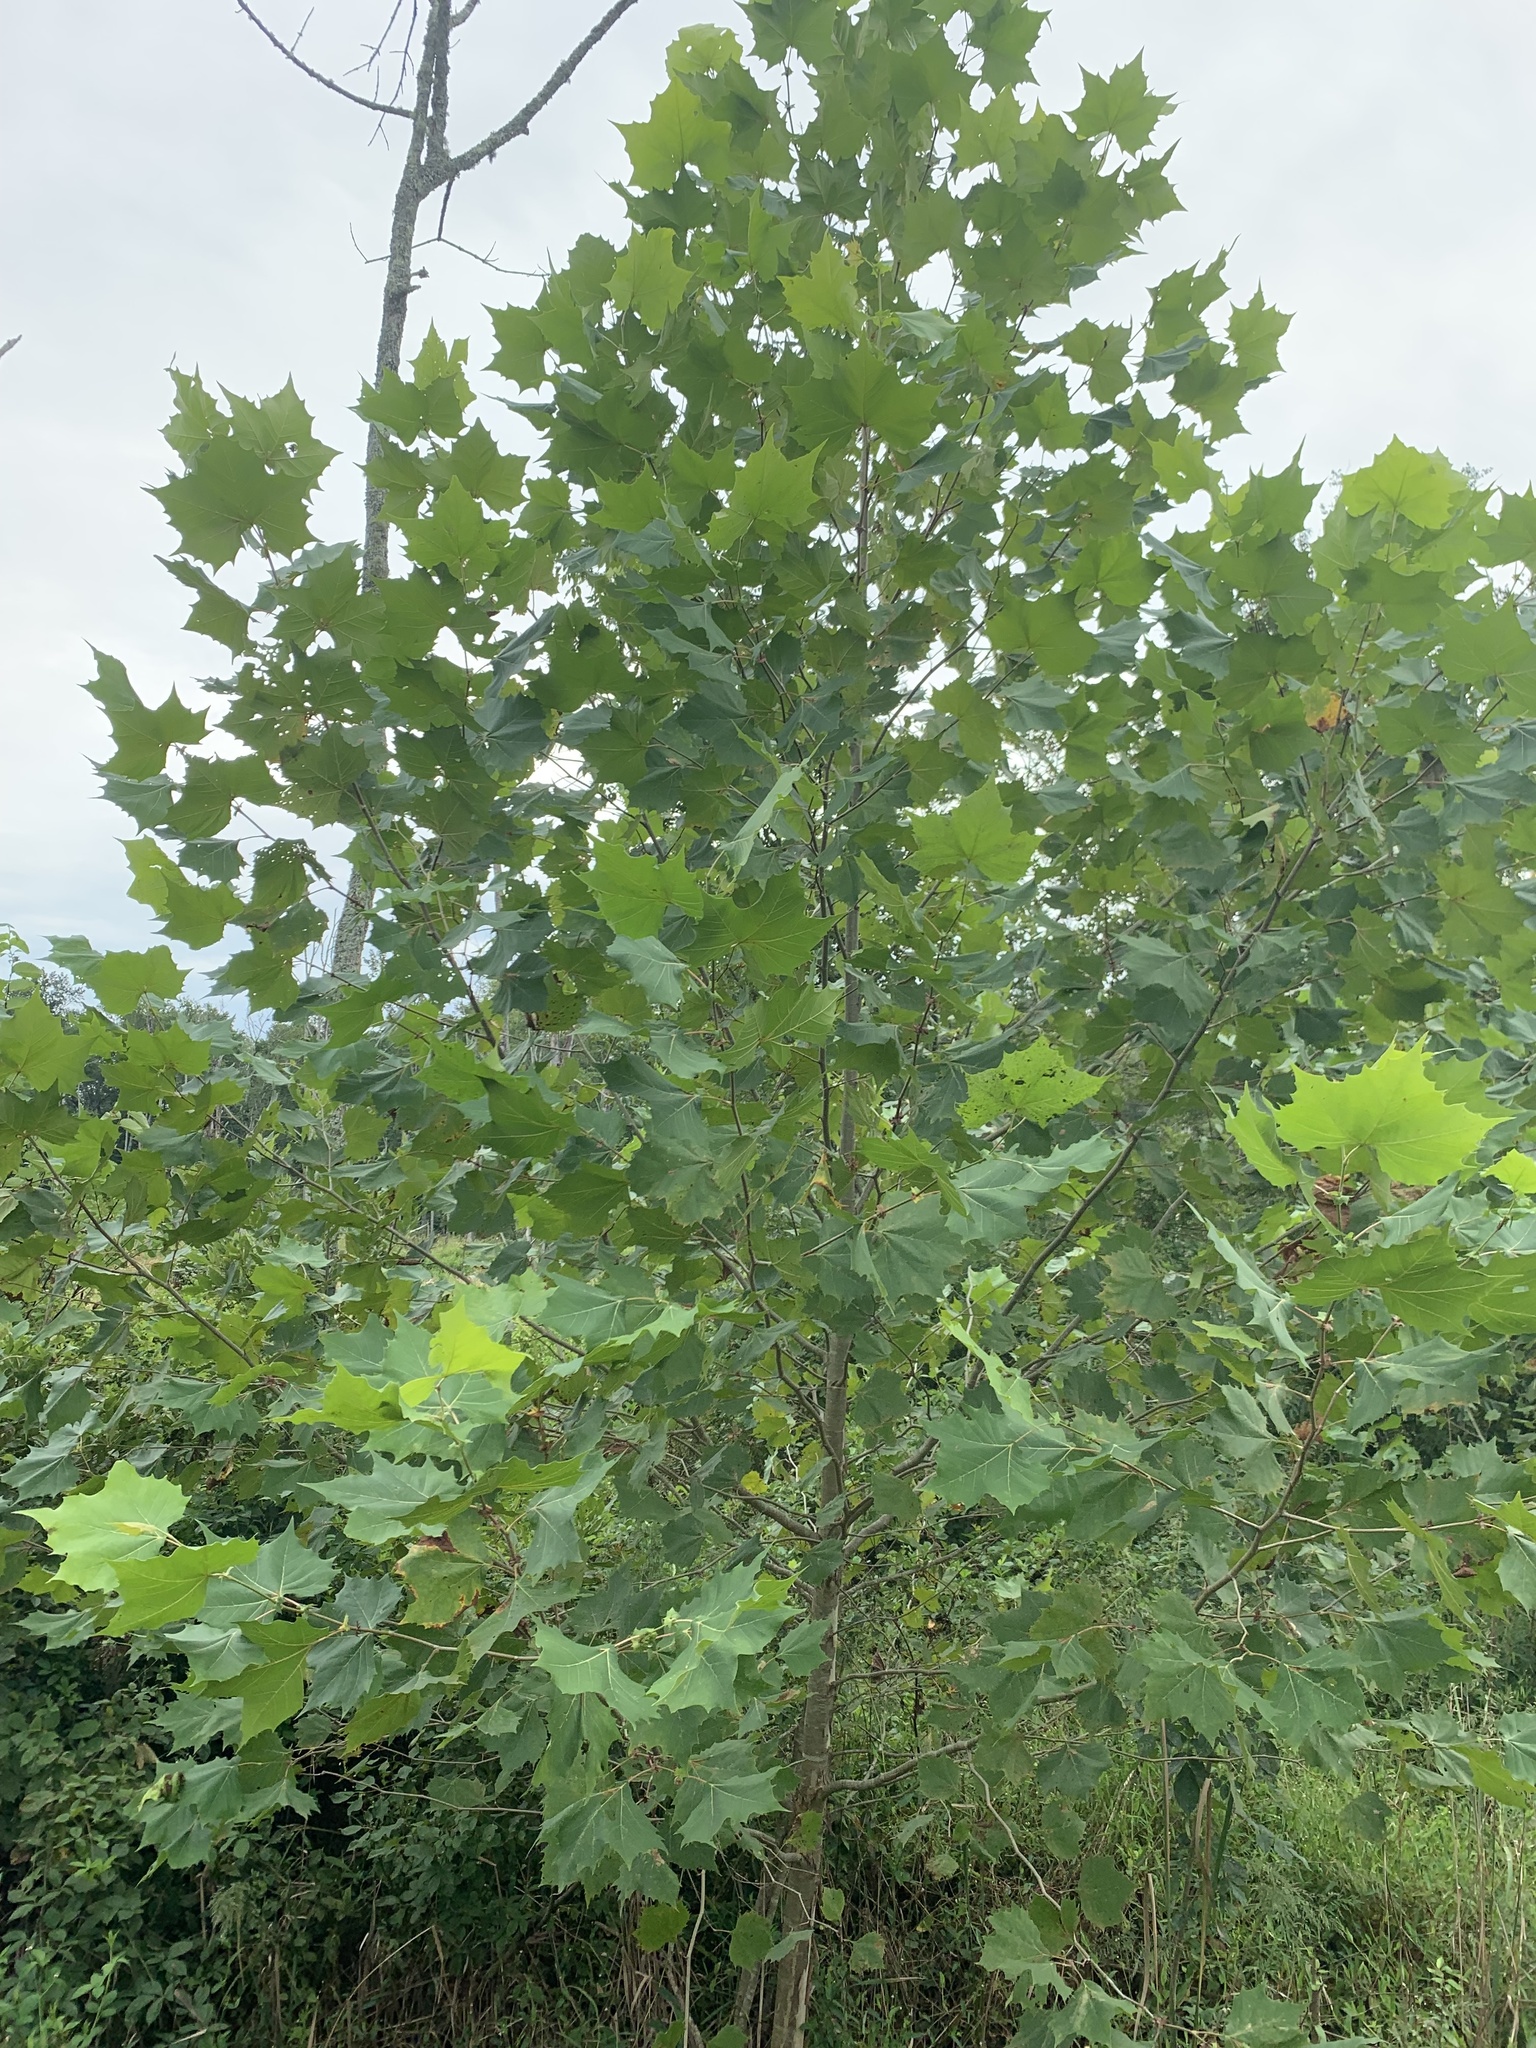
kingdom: Plantae
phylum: Tracheophyta
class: Magnoliopsida
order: Proteales
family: Platanaceae
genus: Platanus
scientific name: Platanus occidentalis
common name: American sycamore
